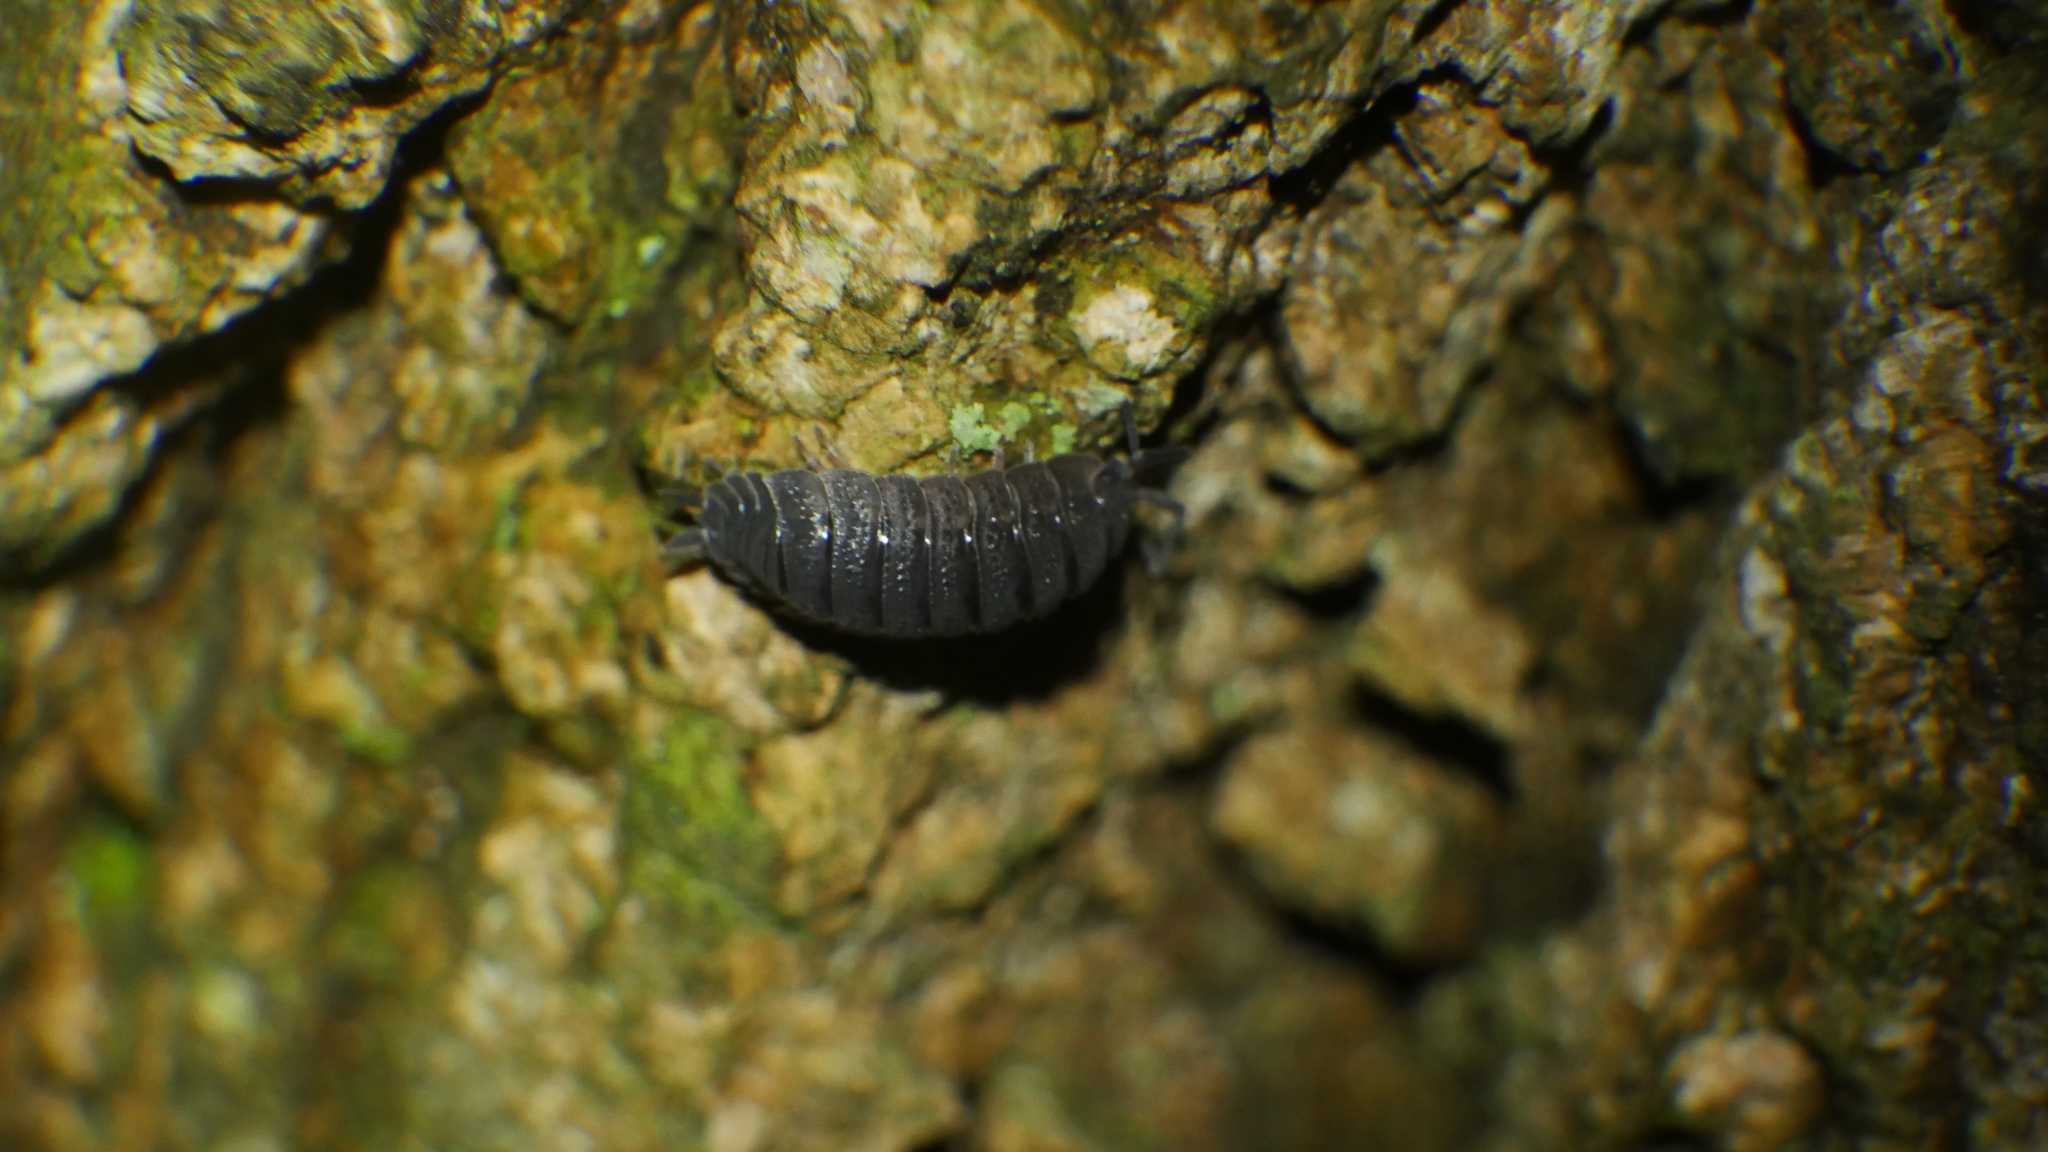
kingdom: Animalia
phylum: Arthropoda
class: Malacostraca
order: Isopoda
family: Porcellionidae
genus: Porcellio
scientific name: Porcellio scaber
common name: Common rough woodlouse
